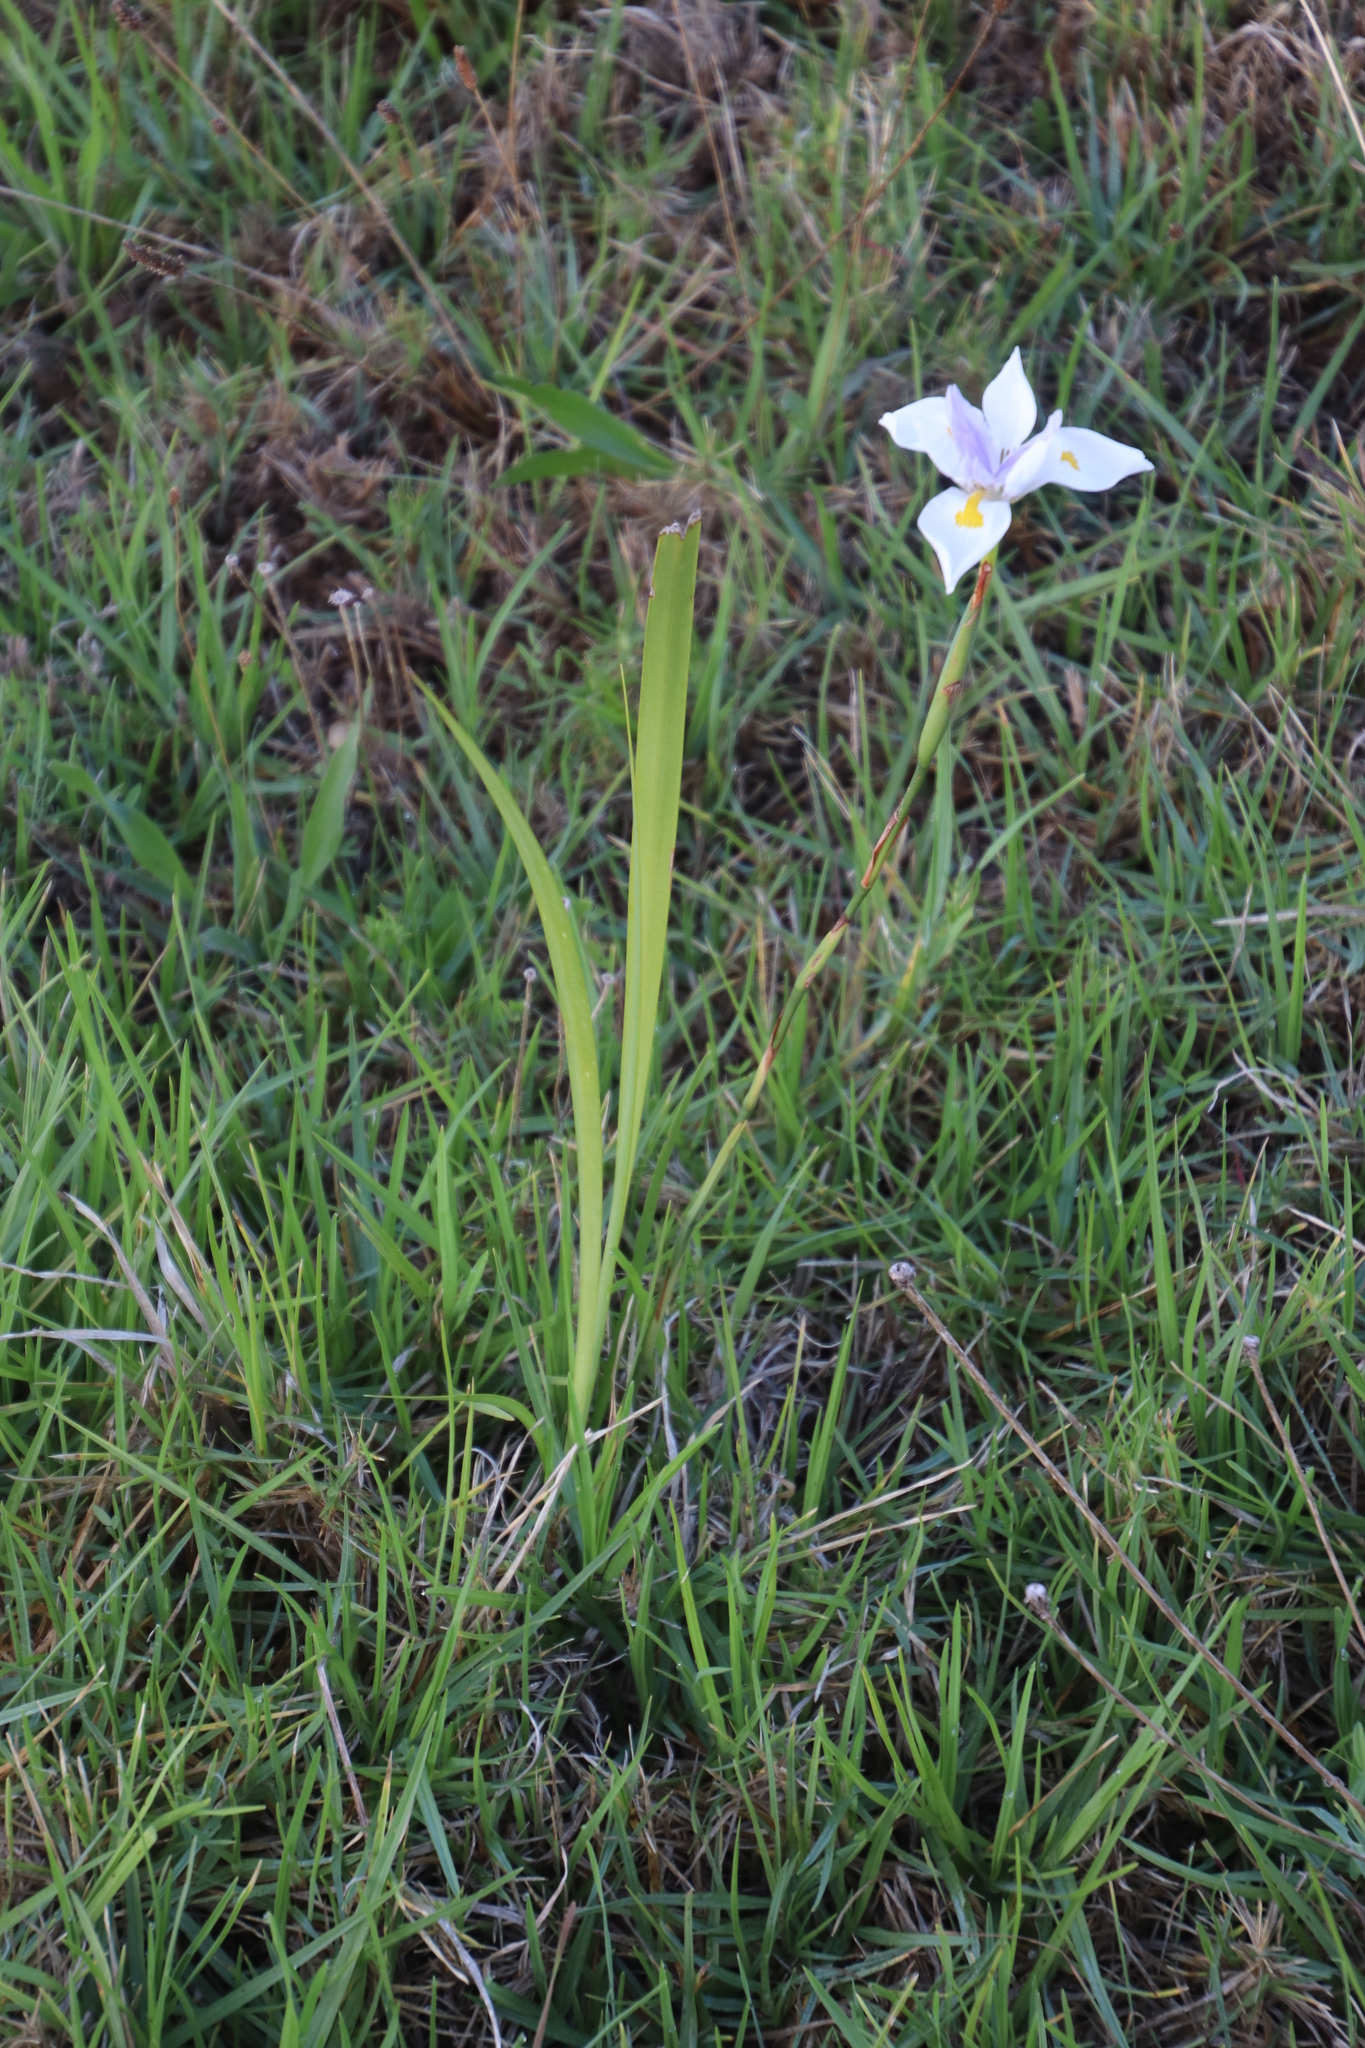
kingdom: Plantae
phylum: Tracheophyta
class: Liliopsida
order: Asparagales
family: Iridaceae
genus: Dietes
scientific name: Dietes grandiflora
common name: Wild iris
